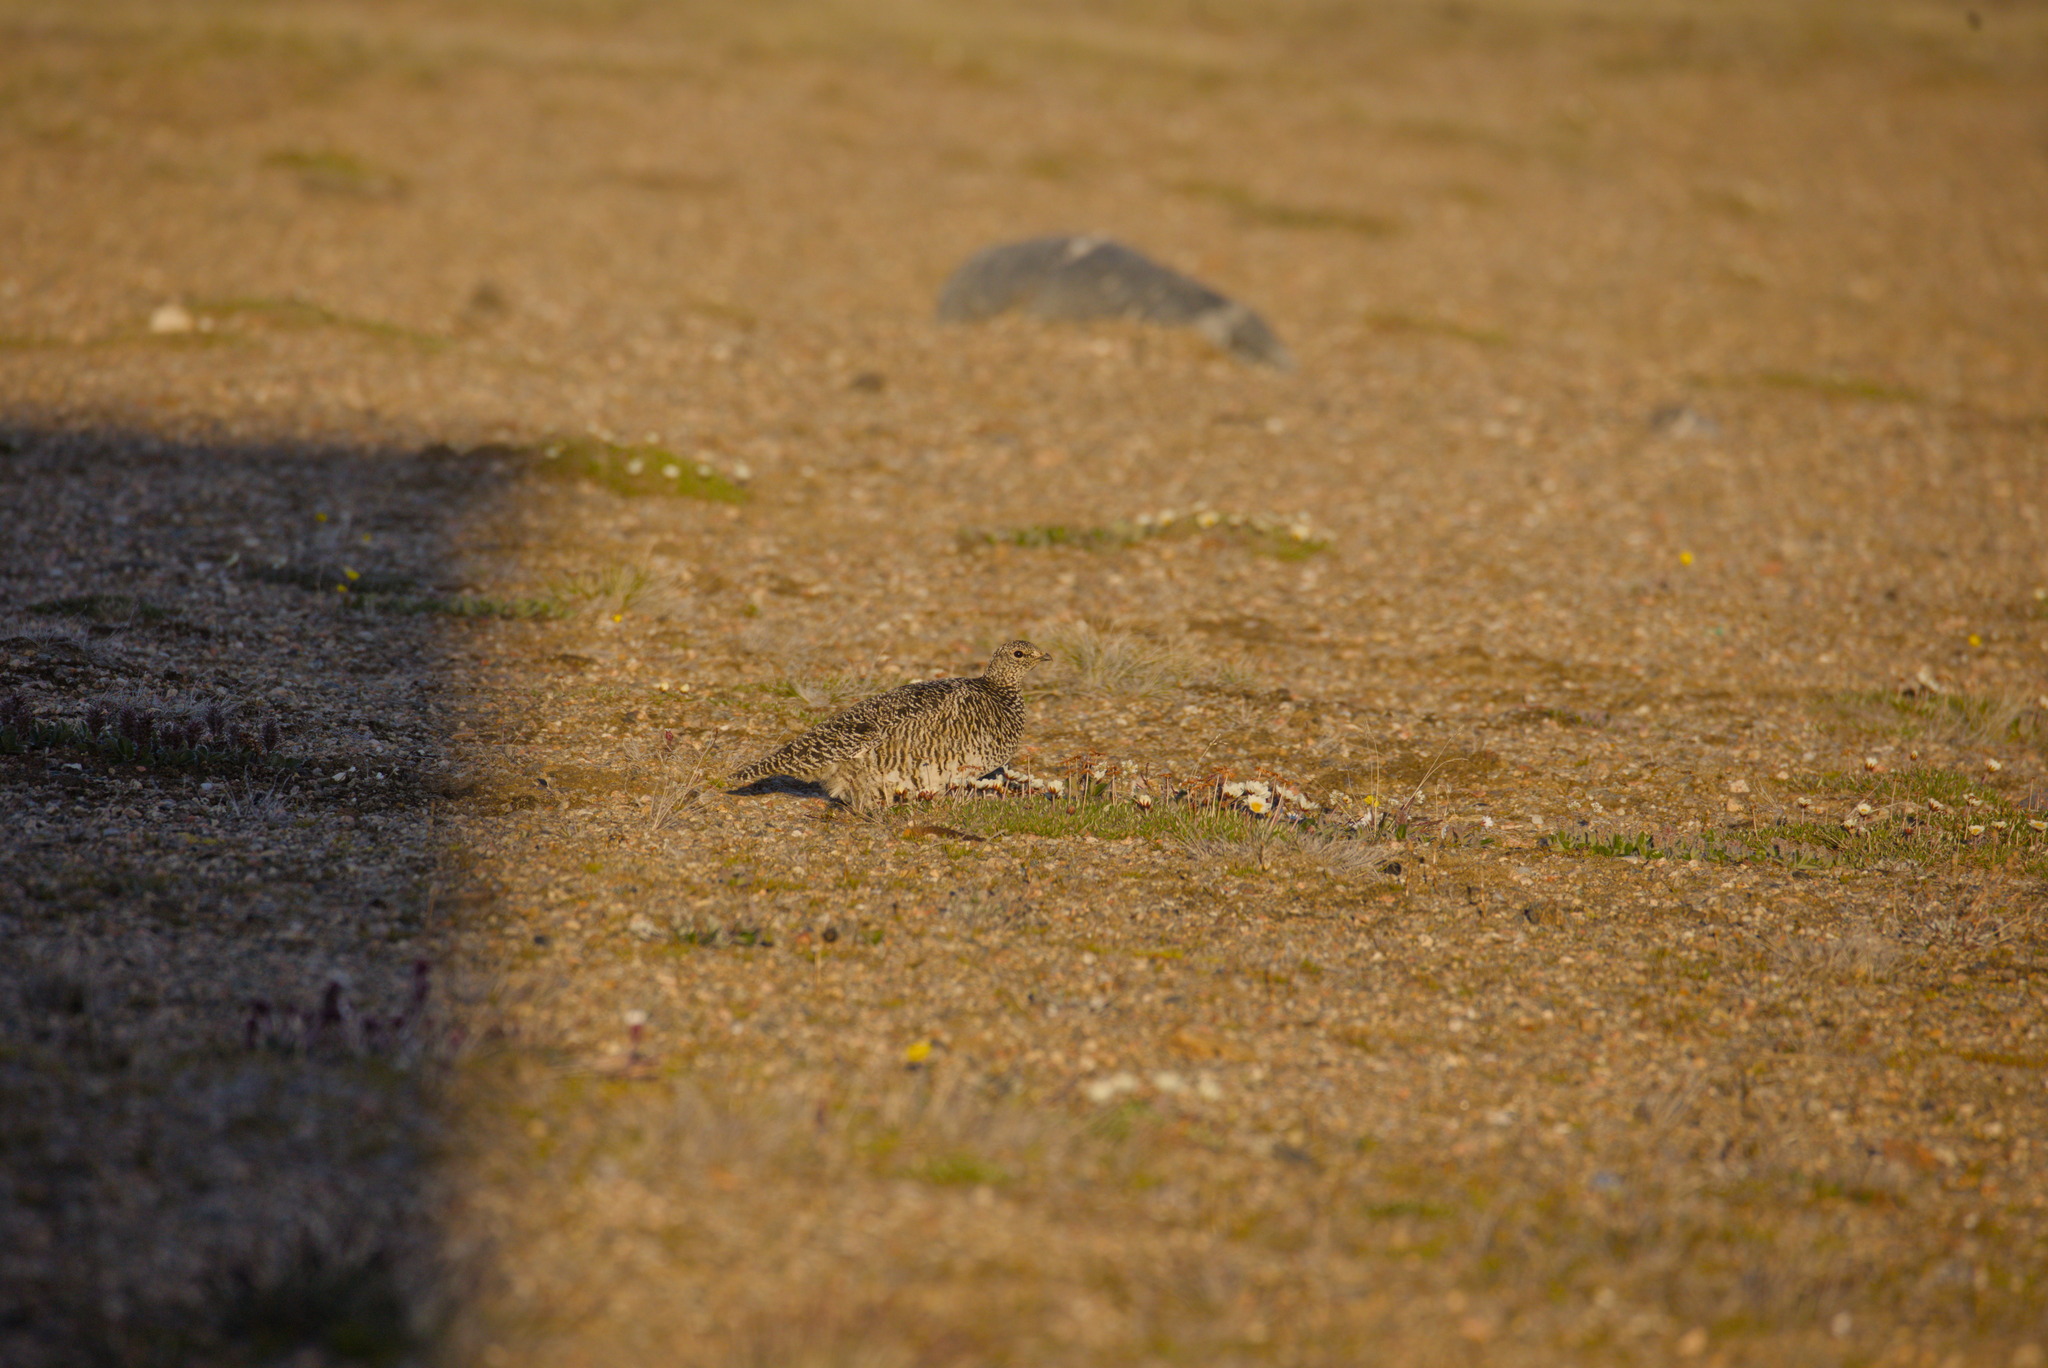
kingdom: Animalia
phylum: Chordata
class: Aves
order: Galliformes
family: Phasianidae
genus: Lagopus
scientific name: Lagopus muta
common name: Rock ptarmigan
